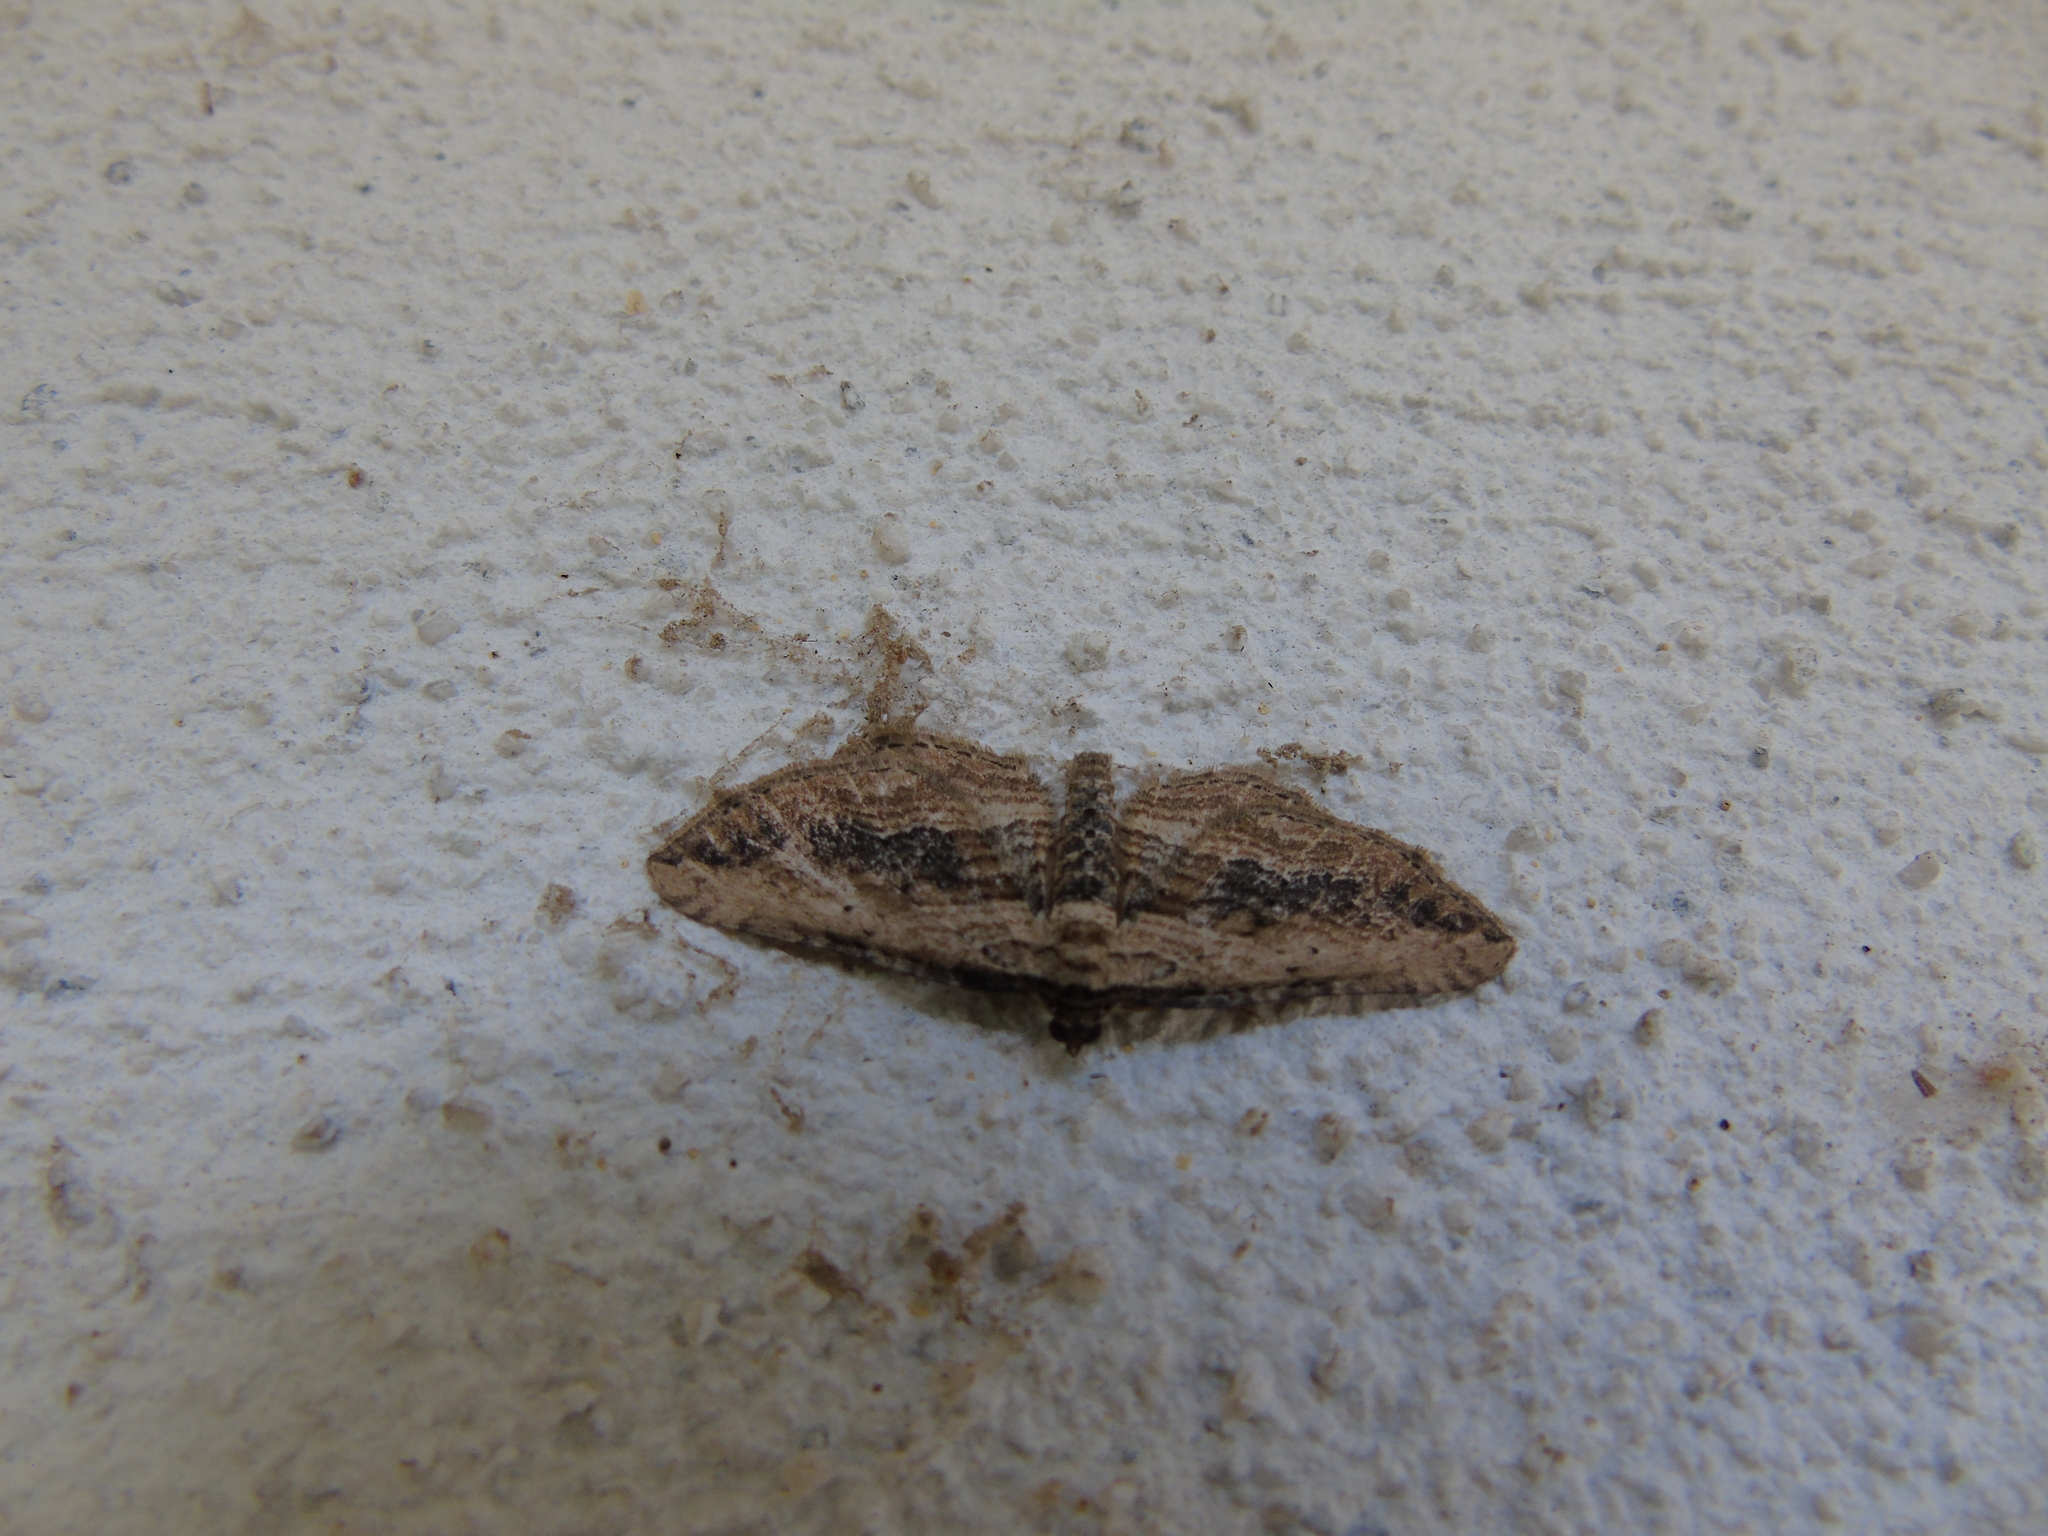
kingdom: Animalia
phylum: Arthropoda
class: Insecta
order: Lepidoptera
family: Geometridae
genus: Horisme
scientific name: Horisme vitalbata
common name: Small waved umber
